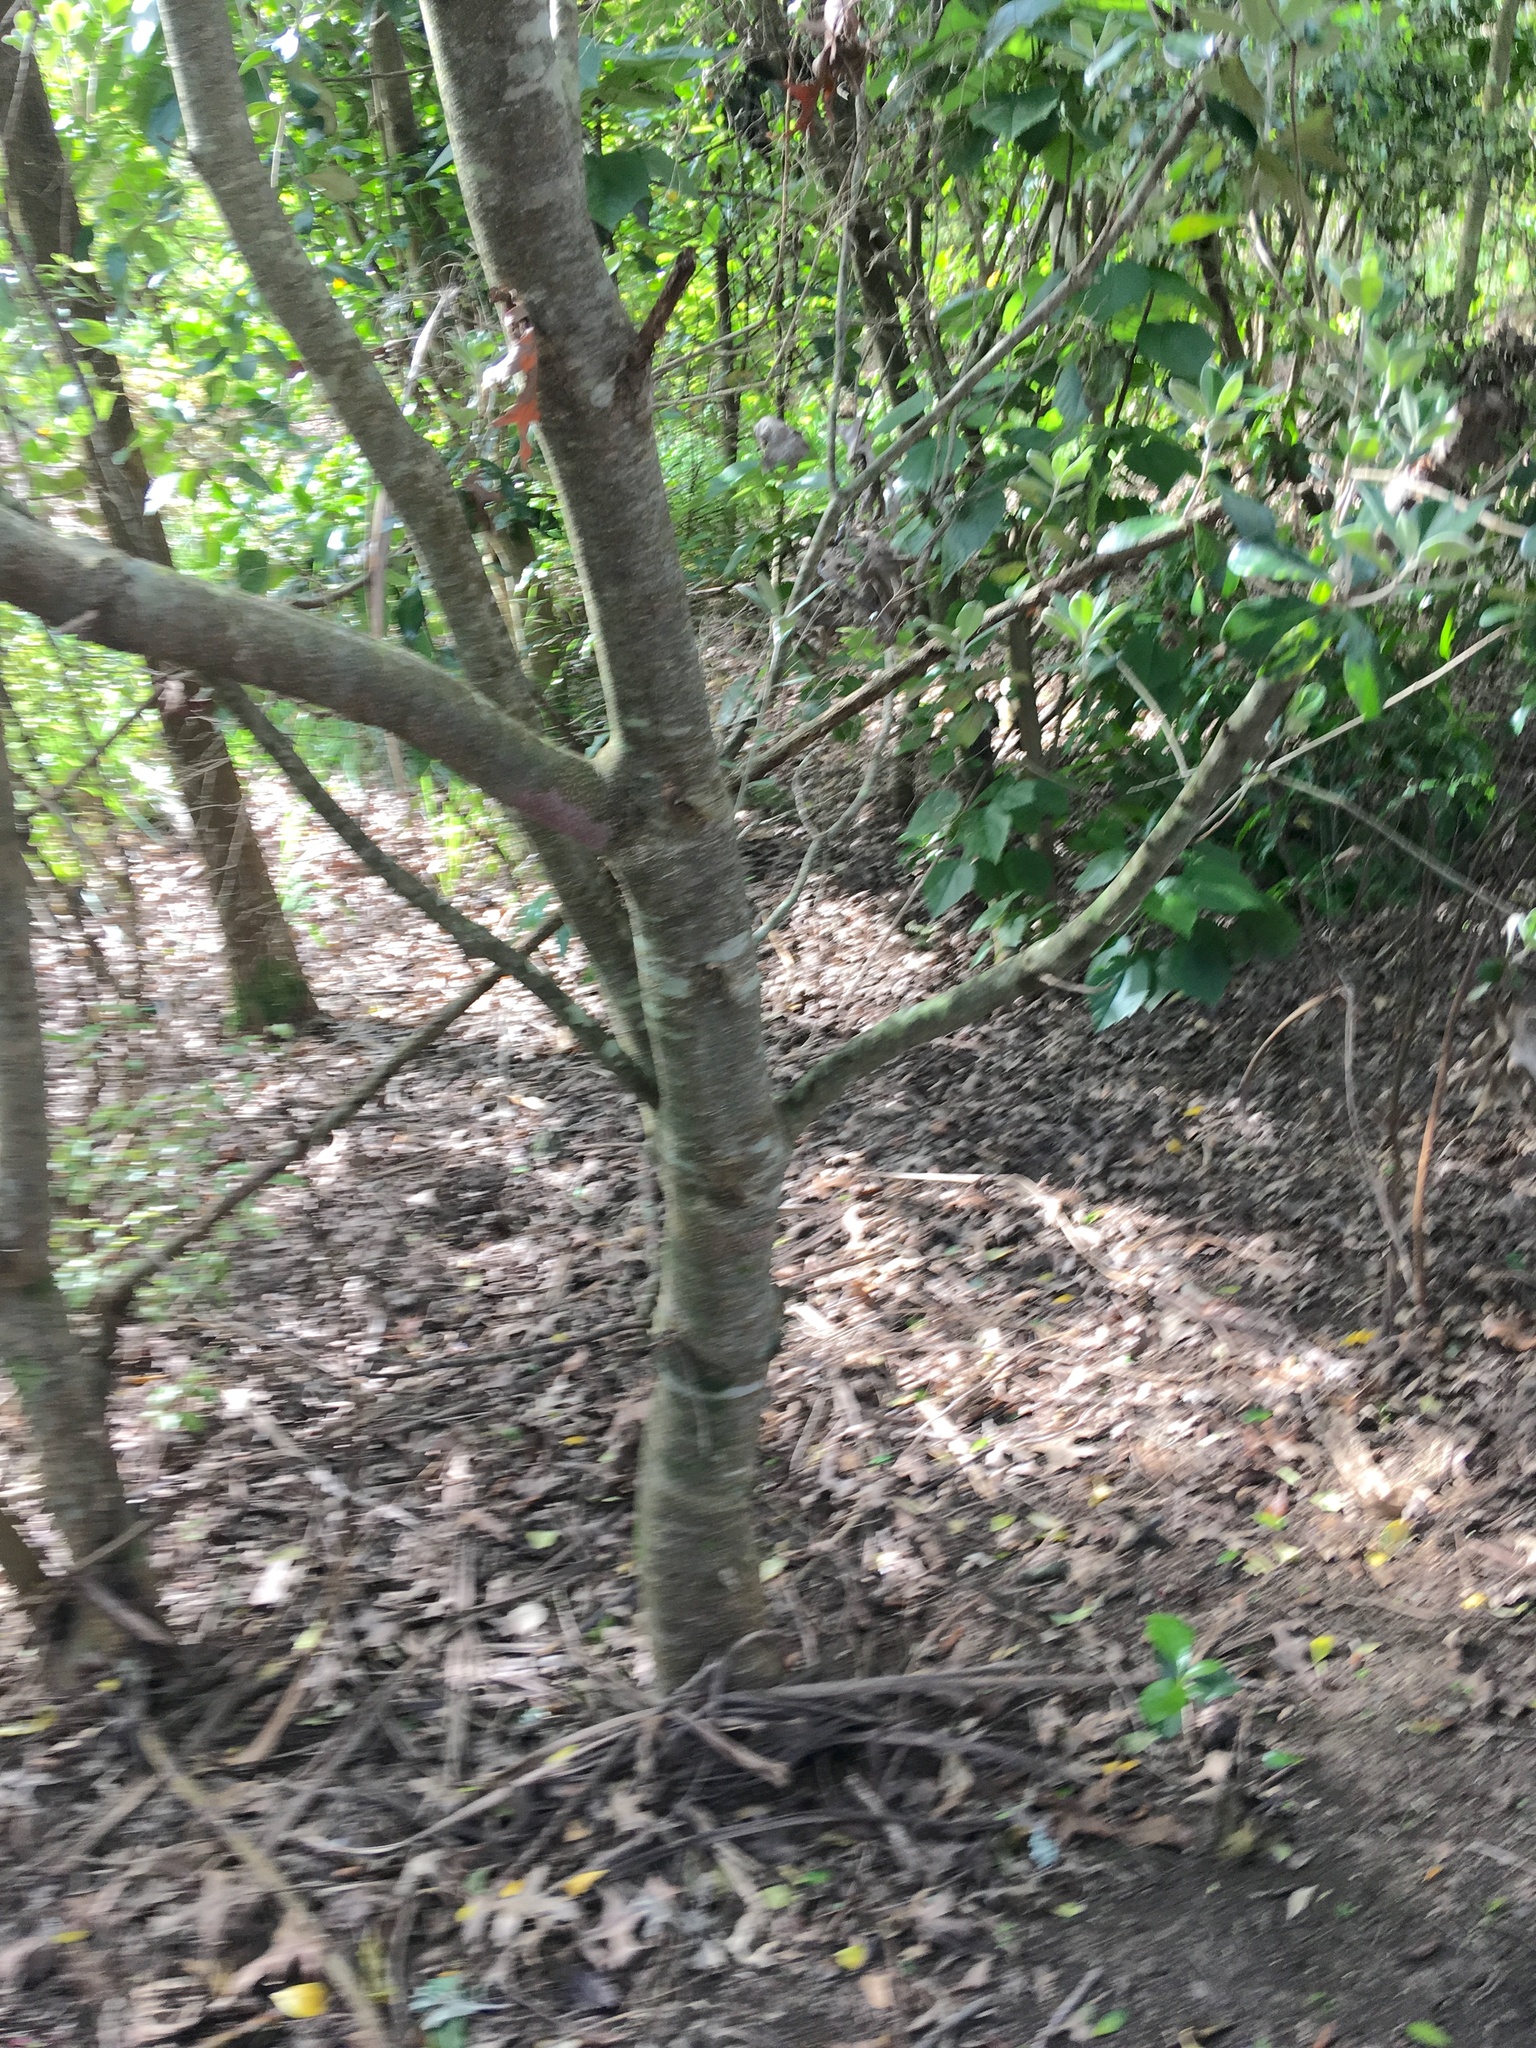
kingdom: Plantae
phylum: Tracheophyta
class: Magnoliopsida
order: Apiales
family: Pittosporaceae
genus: Pittosporum
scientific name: Pittosporum crassifolium
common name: Karo
